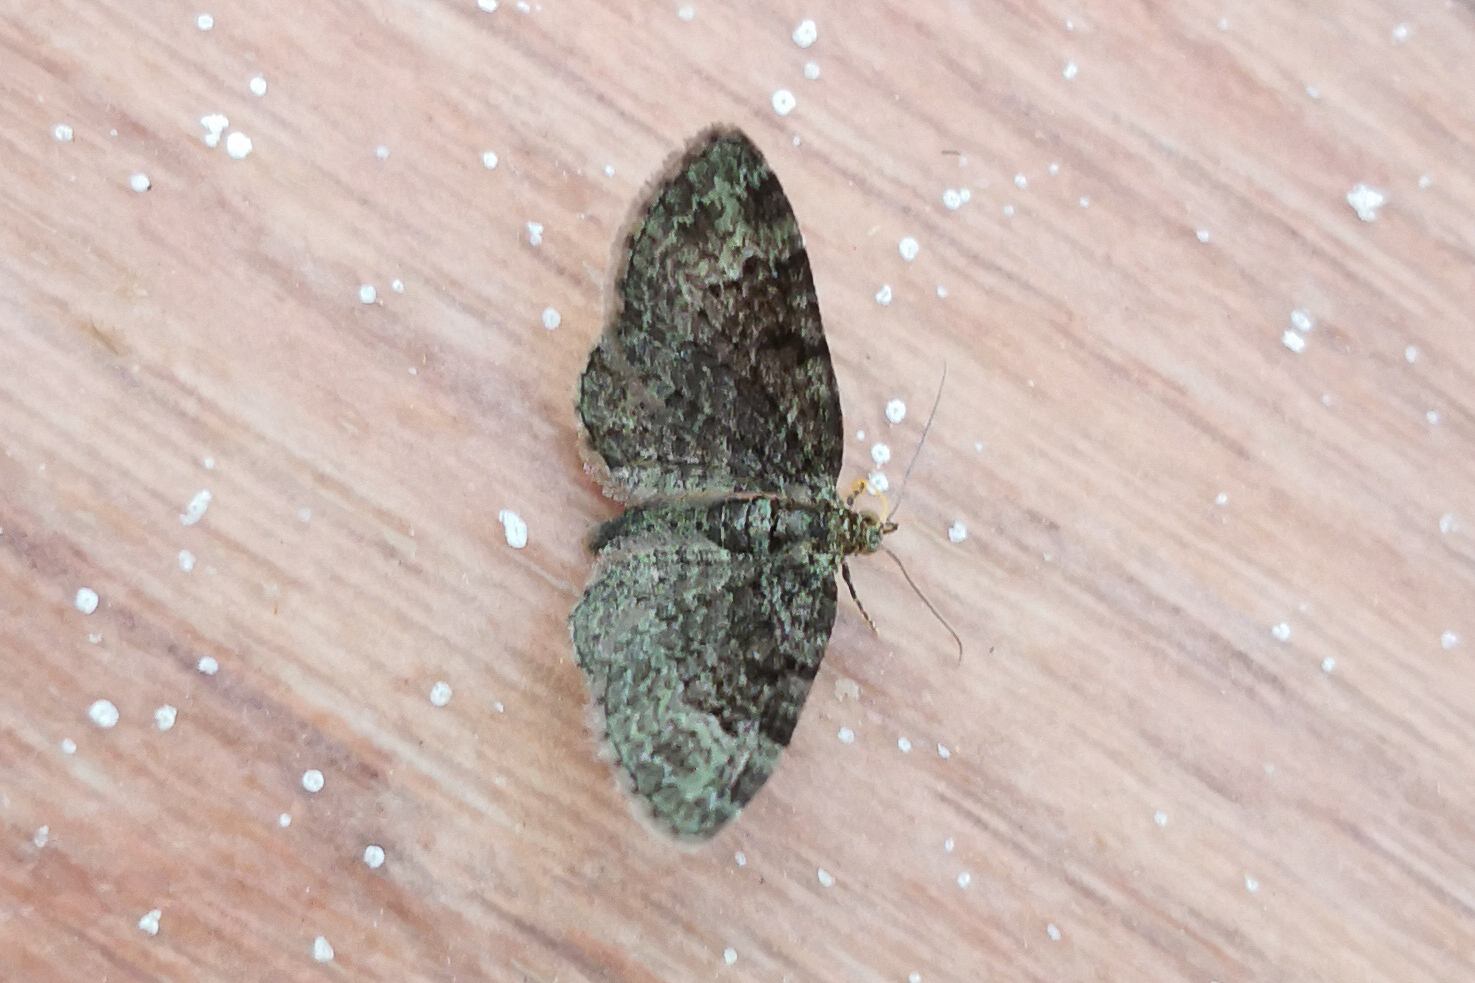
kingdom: Animalia
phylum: Arthropoda
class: Insecta
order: Lepidoptera
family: Geometridae
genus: Pasiphila
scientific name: Pasiphila rectangulata
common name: Green pug
